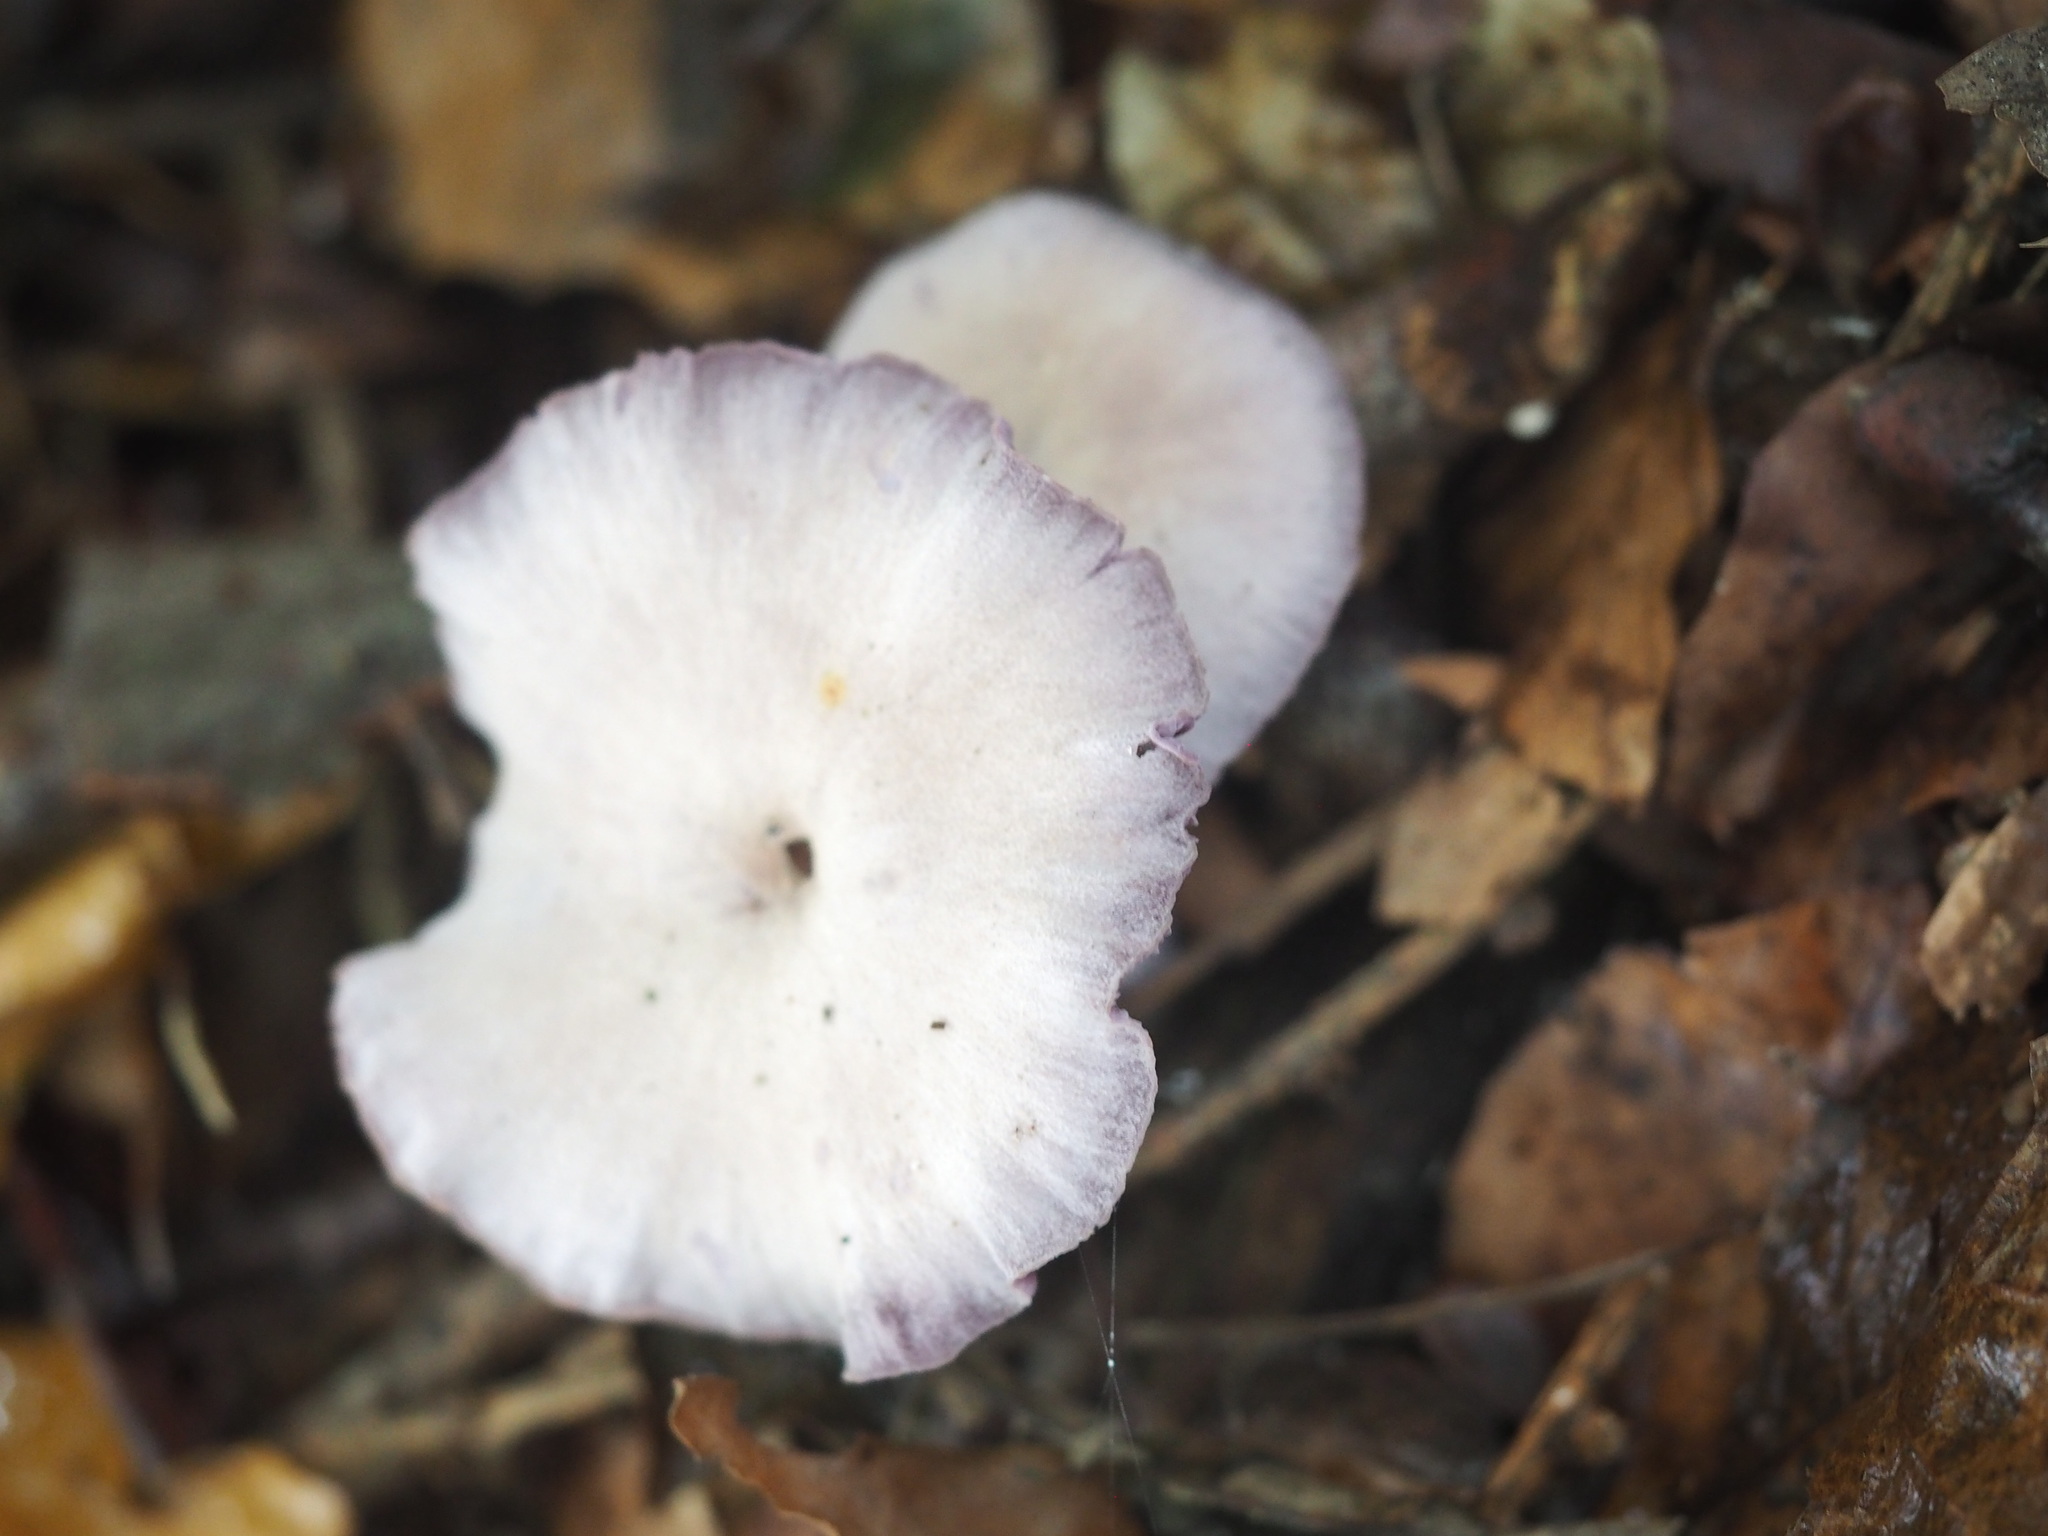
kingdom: Fungi
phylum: Basidiomycota
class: Agaricomycetes
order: Agaricales
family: Hydnangiaceae
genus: Laccaria
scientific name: Laccaria amethystina
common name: Amethyst deceiver
